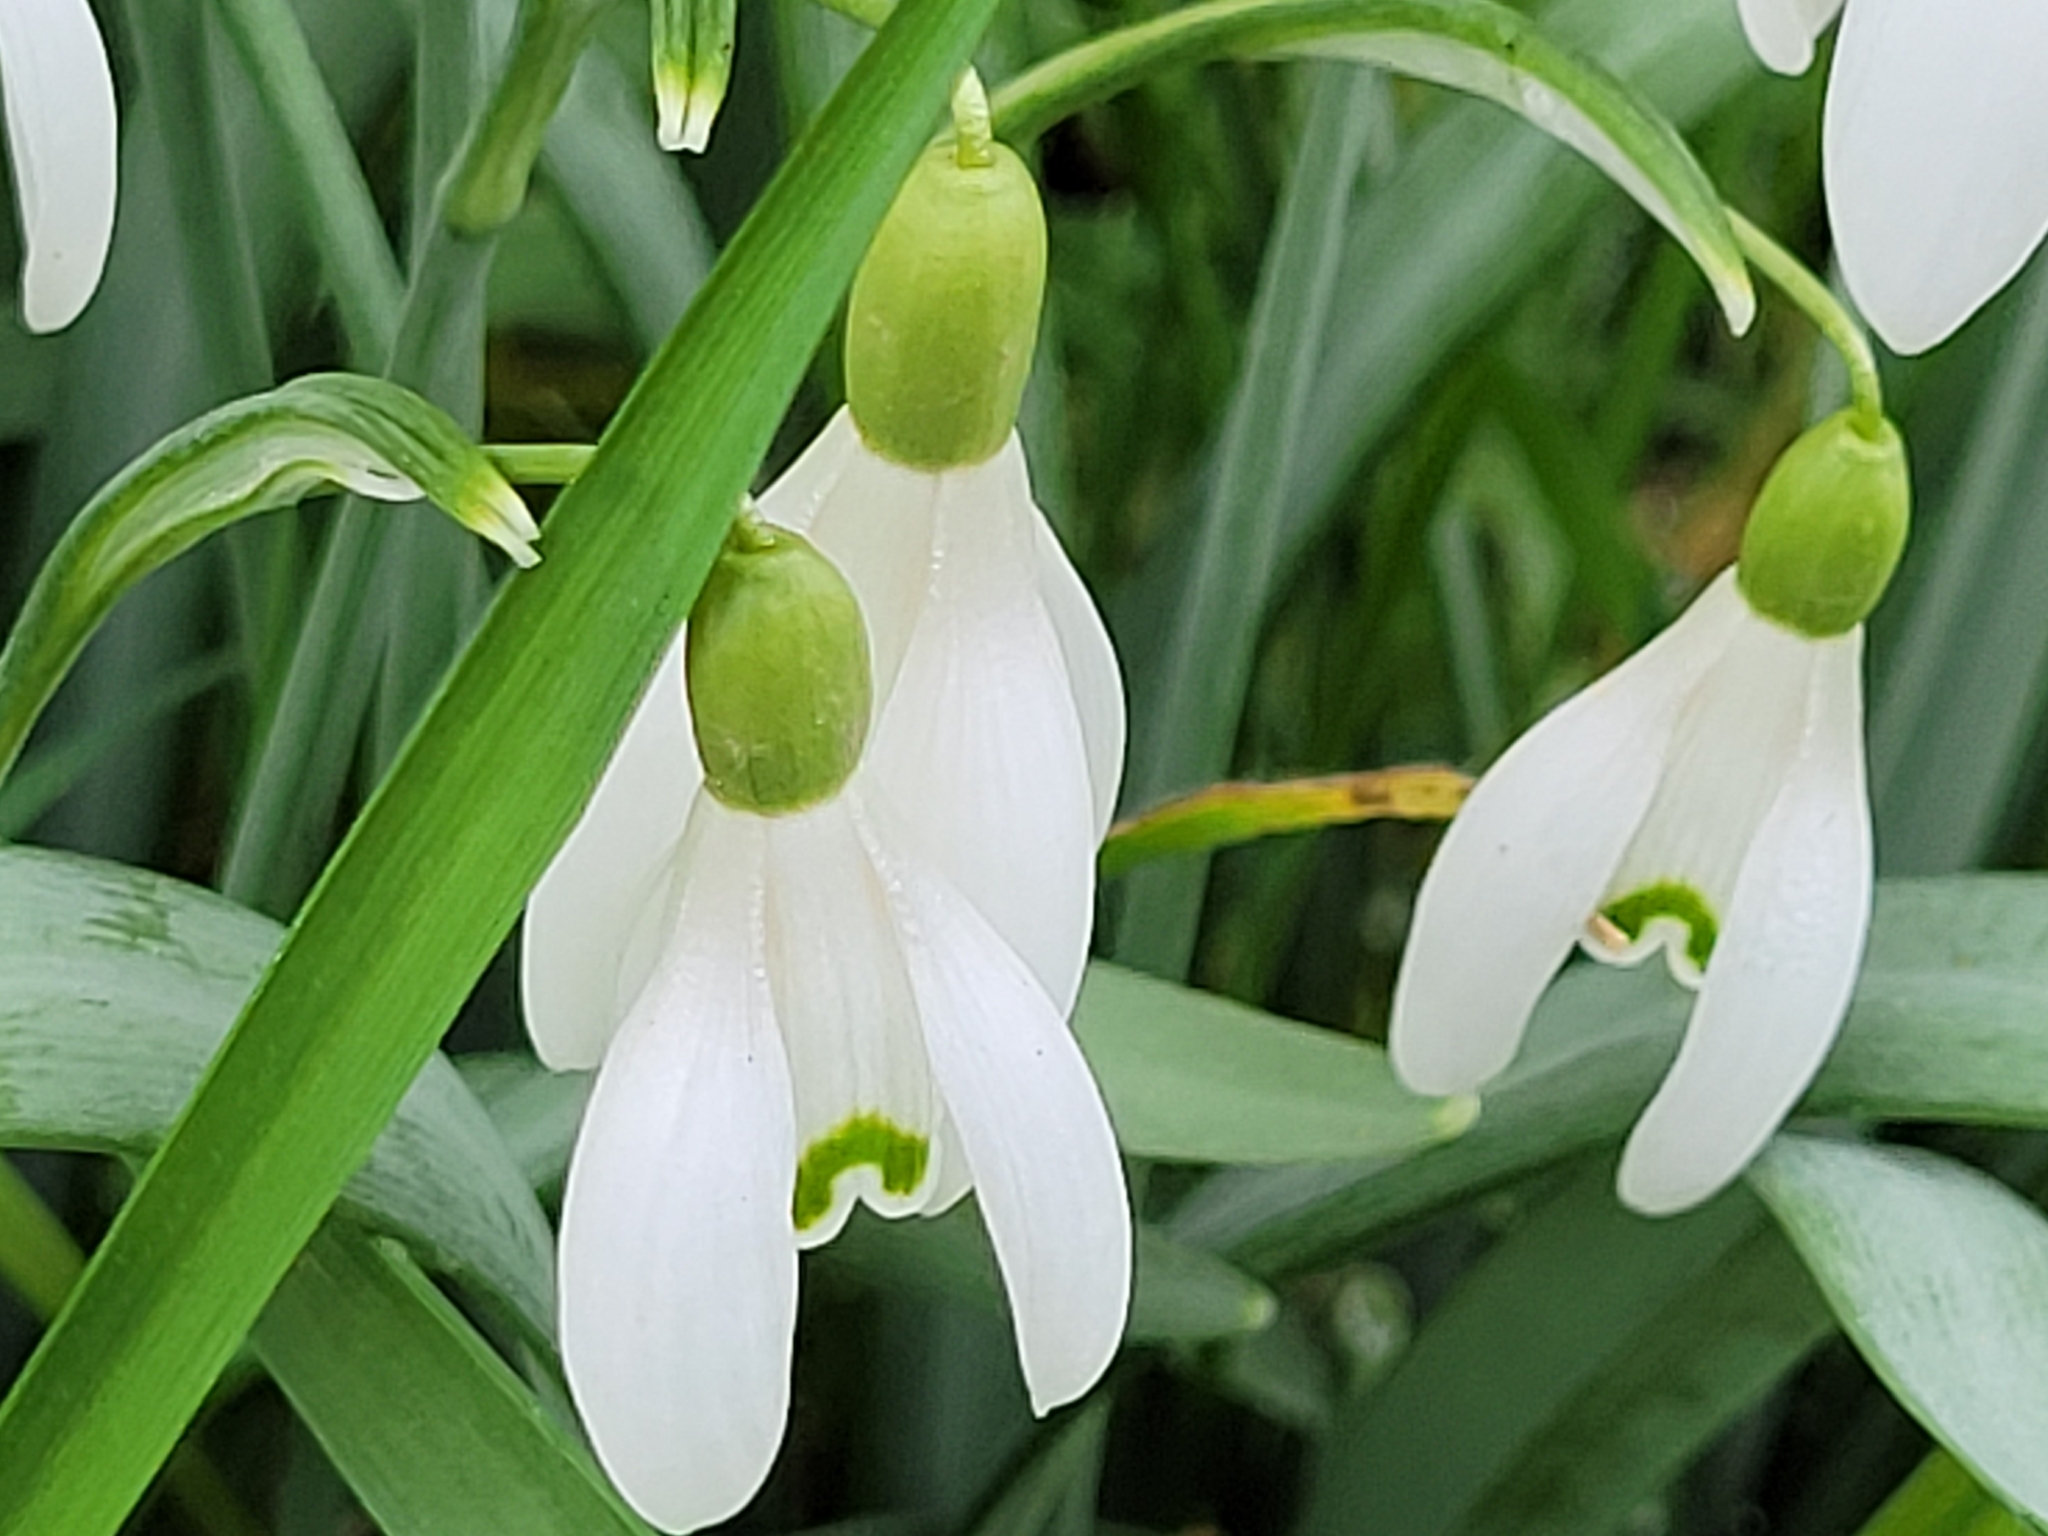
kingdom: Plantae
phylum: Tracheophyta
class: Liliopsida
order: Asparagales
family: Amaryllidaceae
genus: Galanthus
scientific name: Galanthus nivalis
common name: Snowdrop
